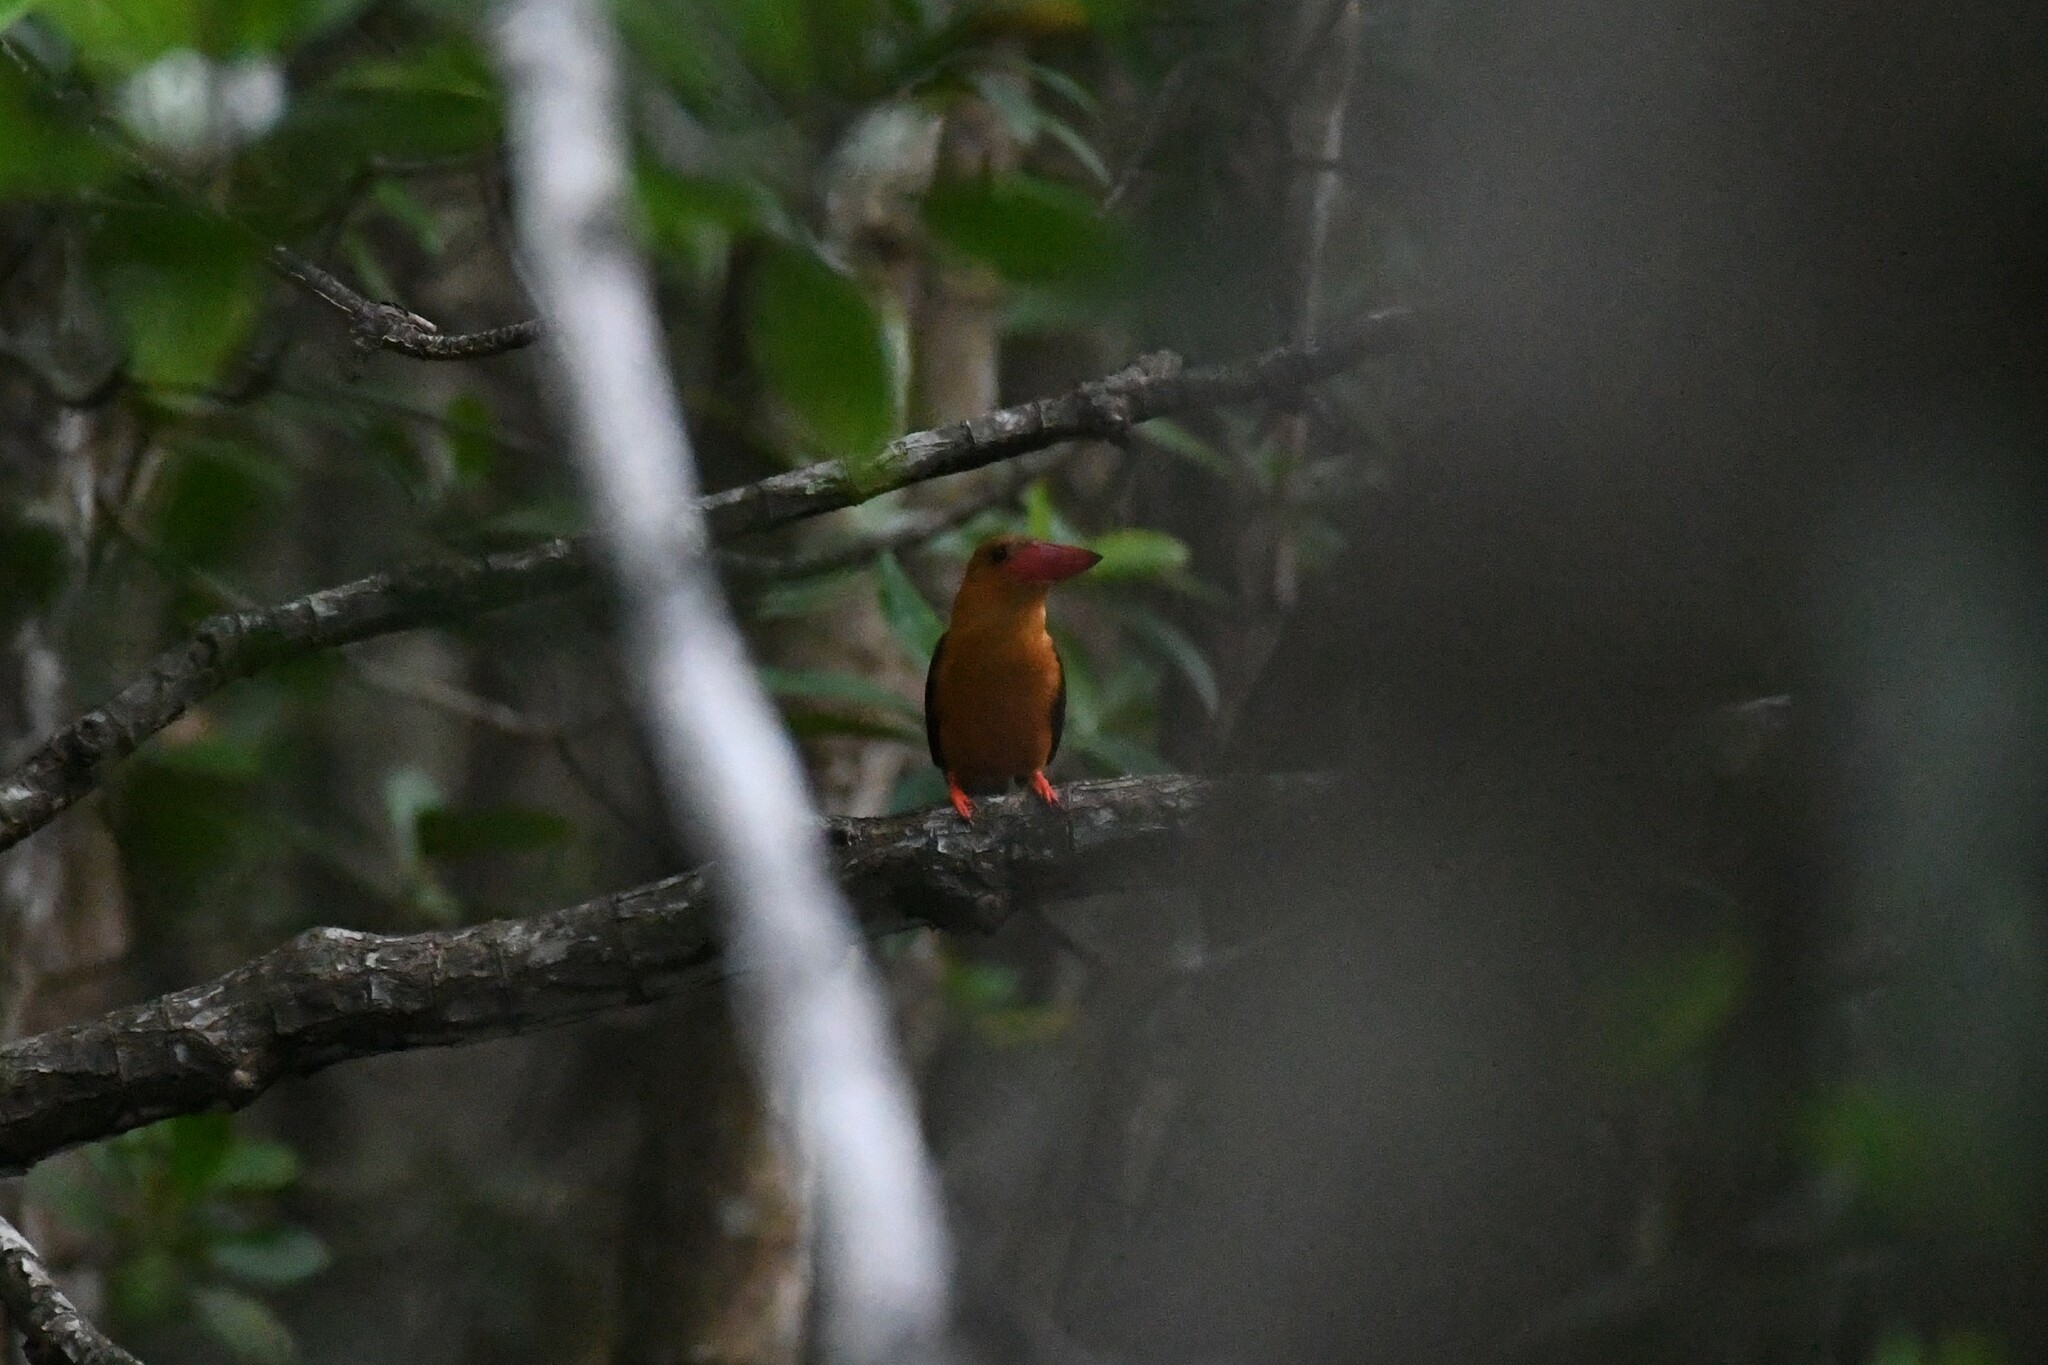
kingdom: Animalia
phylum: Chordata
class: Aves
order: Coraciiformes
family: Alcedinidae
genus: Pelargopsis
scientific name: Pelargopsis amauroptera
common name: Brown-winged kingfisher
